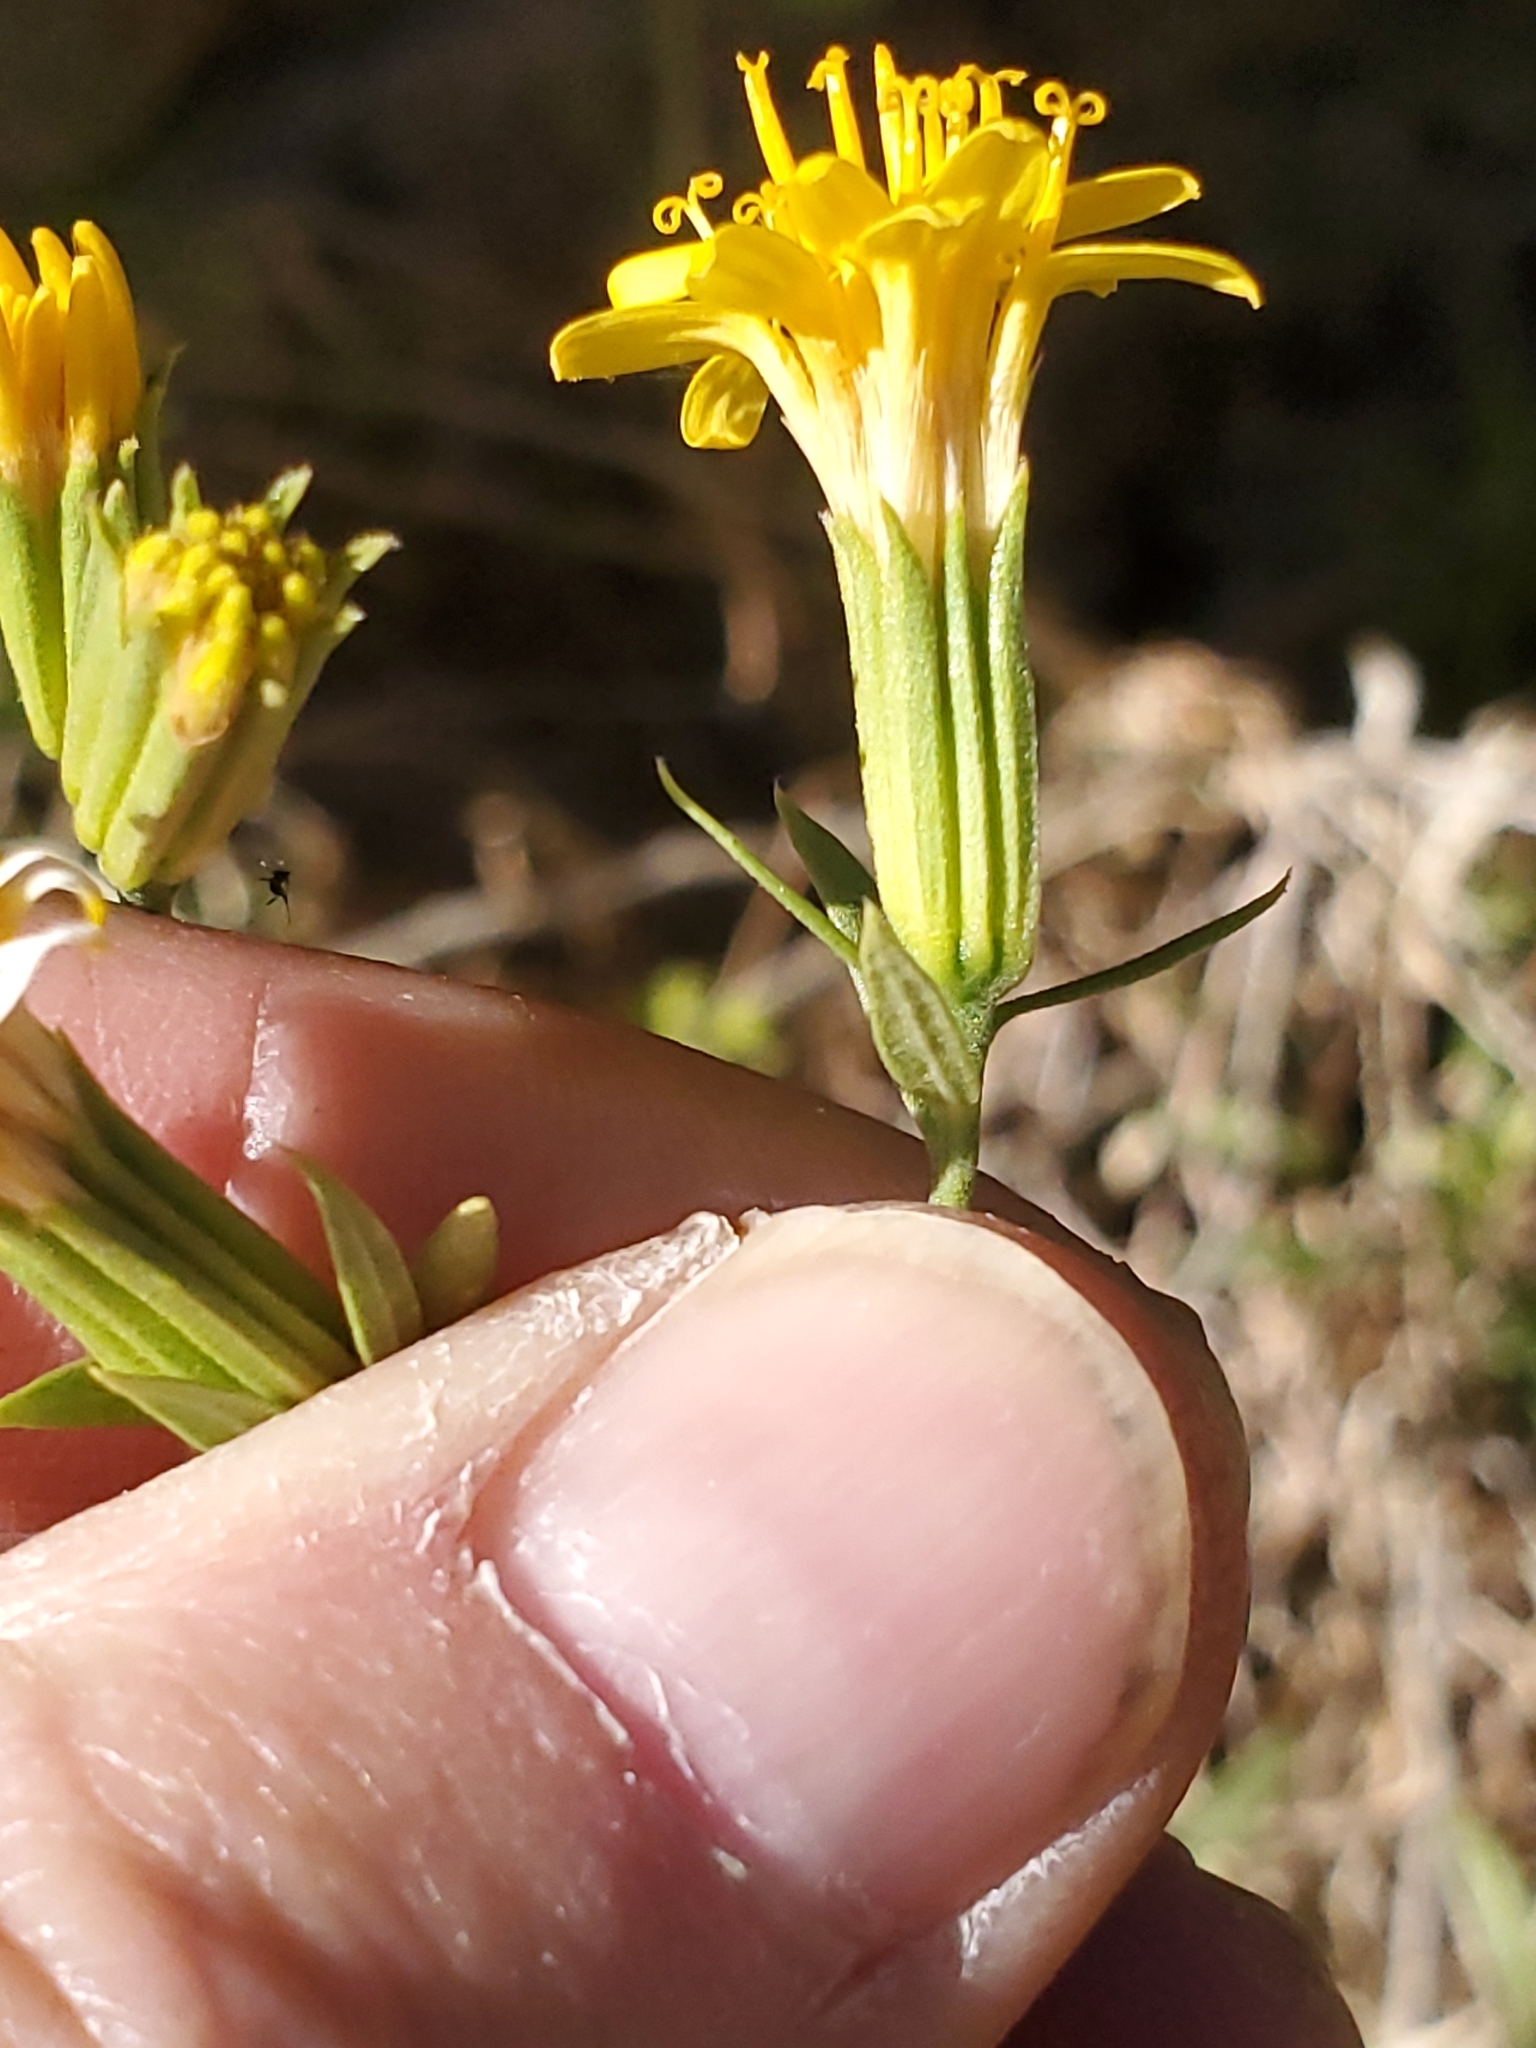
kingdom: Plantae
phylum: Tracheophyta
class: Magnoliopsida
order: Asterales
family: Asteraceae
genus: Trixis
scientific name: Trixis californica
